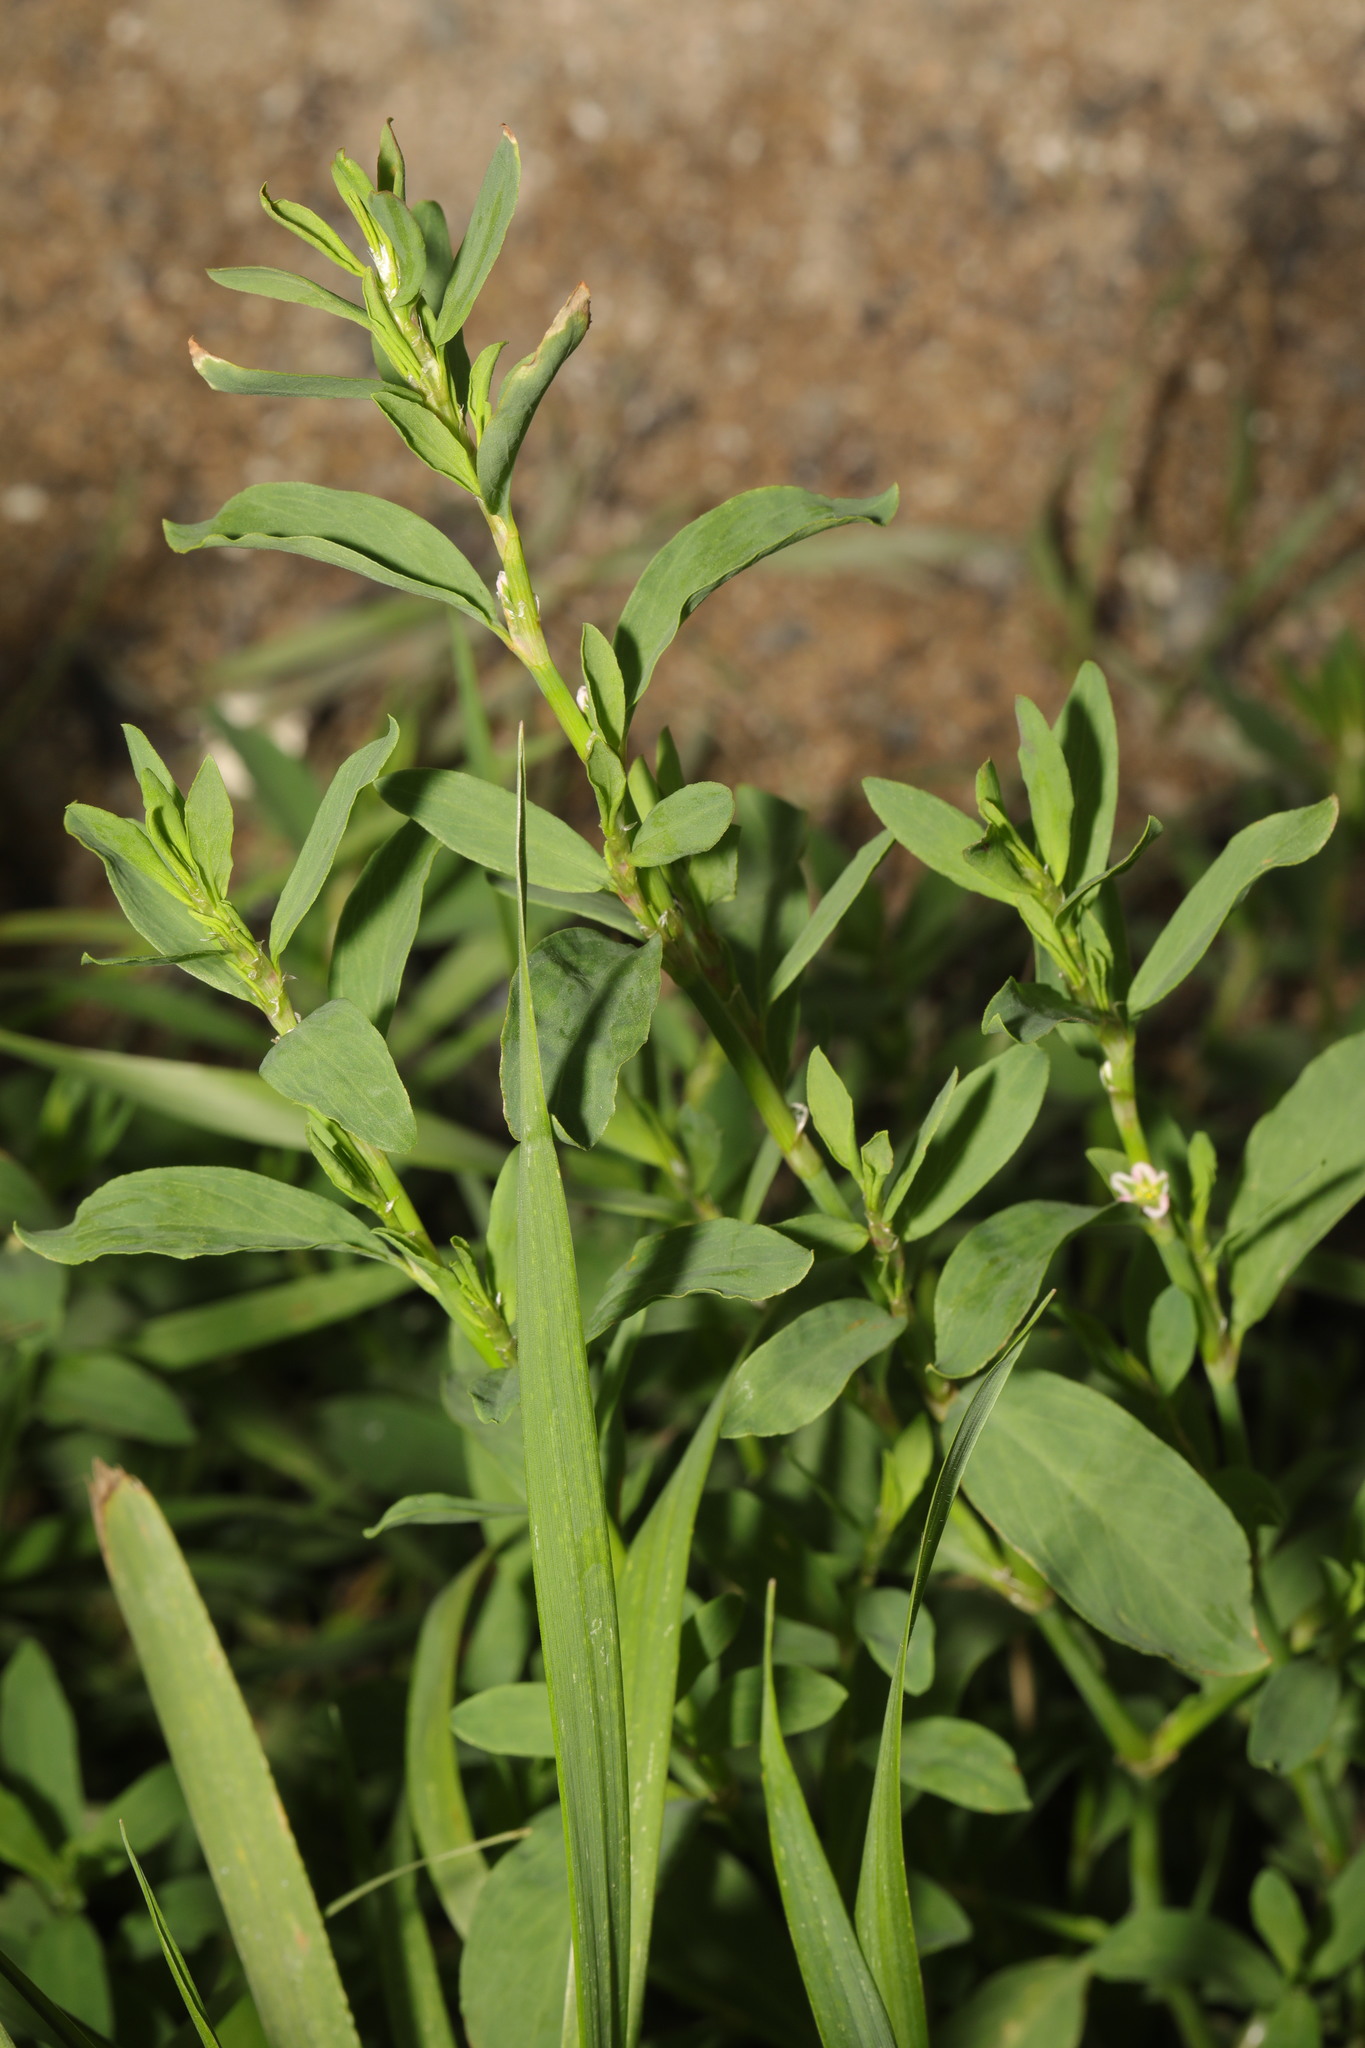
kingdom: Plantae
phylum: Tracheophyta
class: Magnoliopsida
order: Caryophyllales
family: Polygonaceae
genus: Polygonum
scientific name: Polygonum aviculare
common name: Prostrate knotweed
